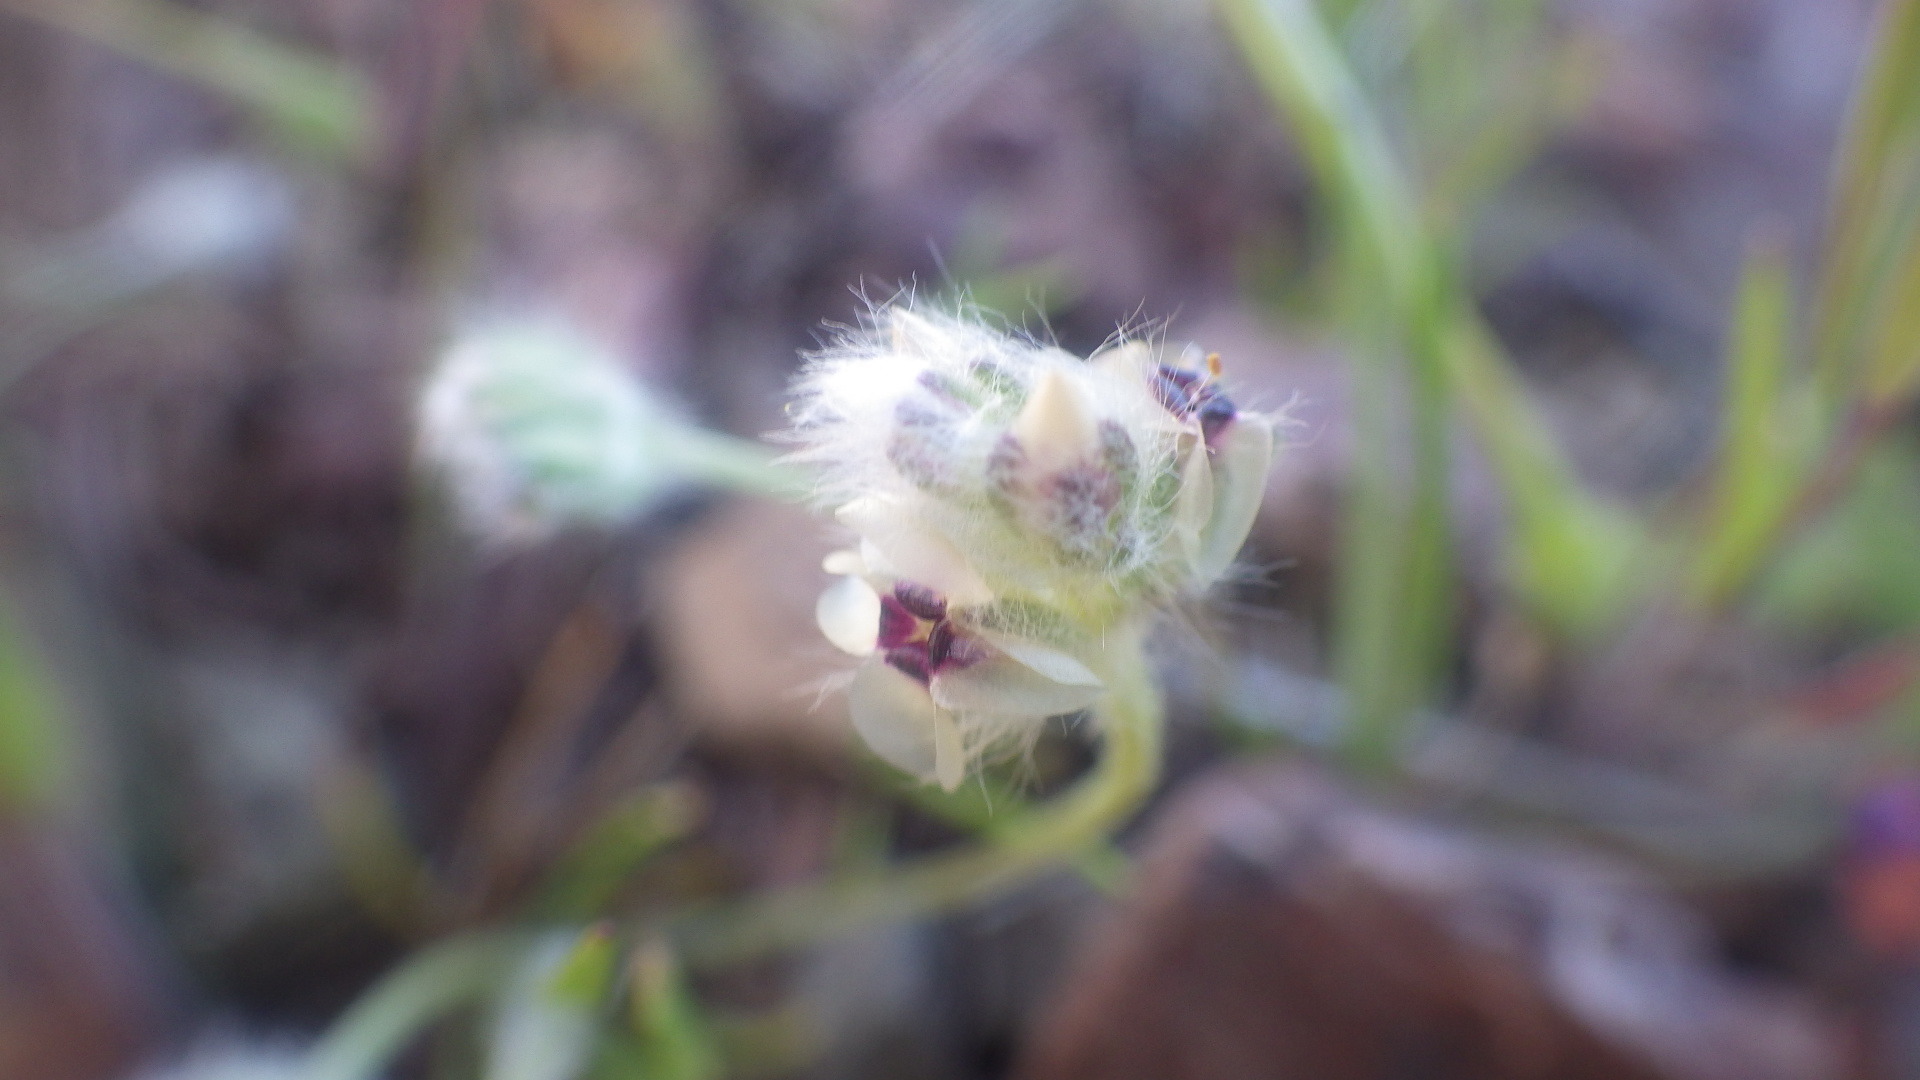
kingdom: Plantae
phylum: Tracheophyta
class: Magnoliopsida
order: Lamiales
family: Plantaginaceae
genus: Plantago
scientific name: Plantago erecta
